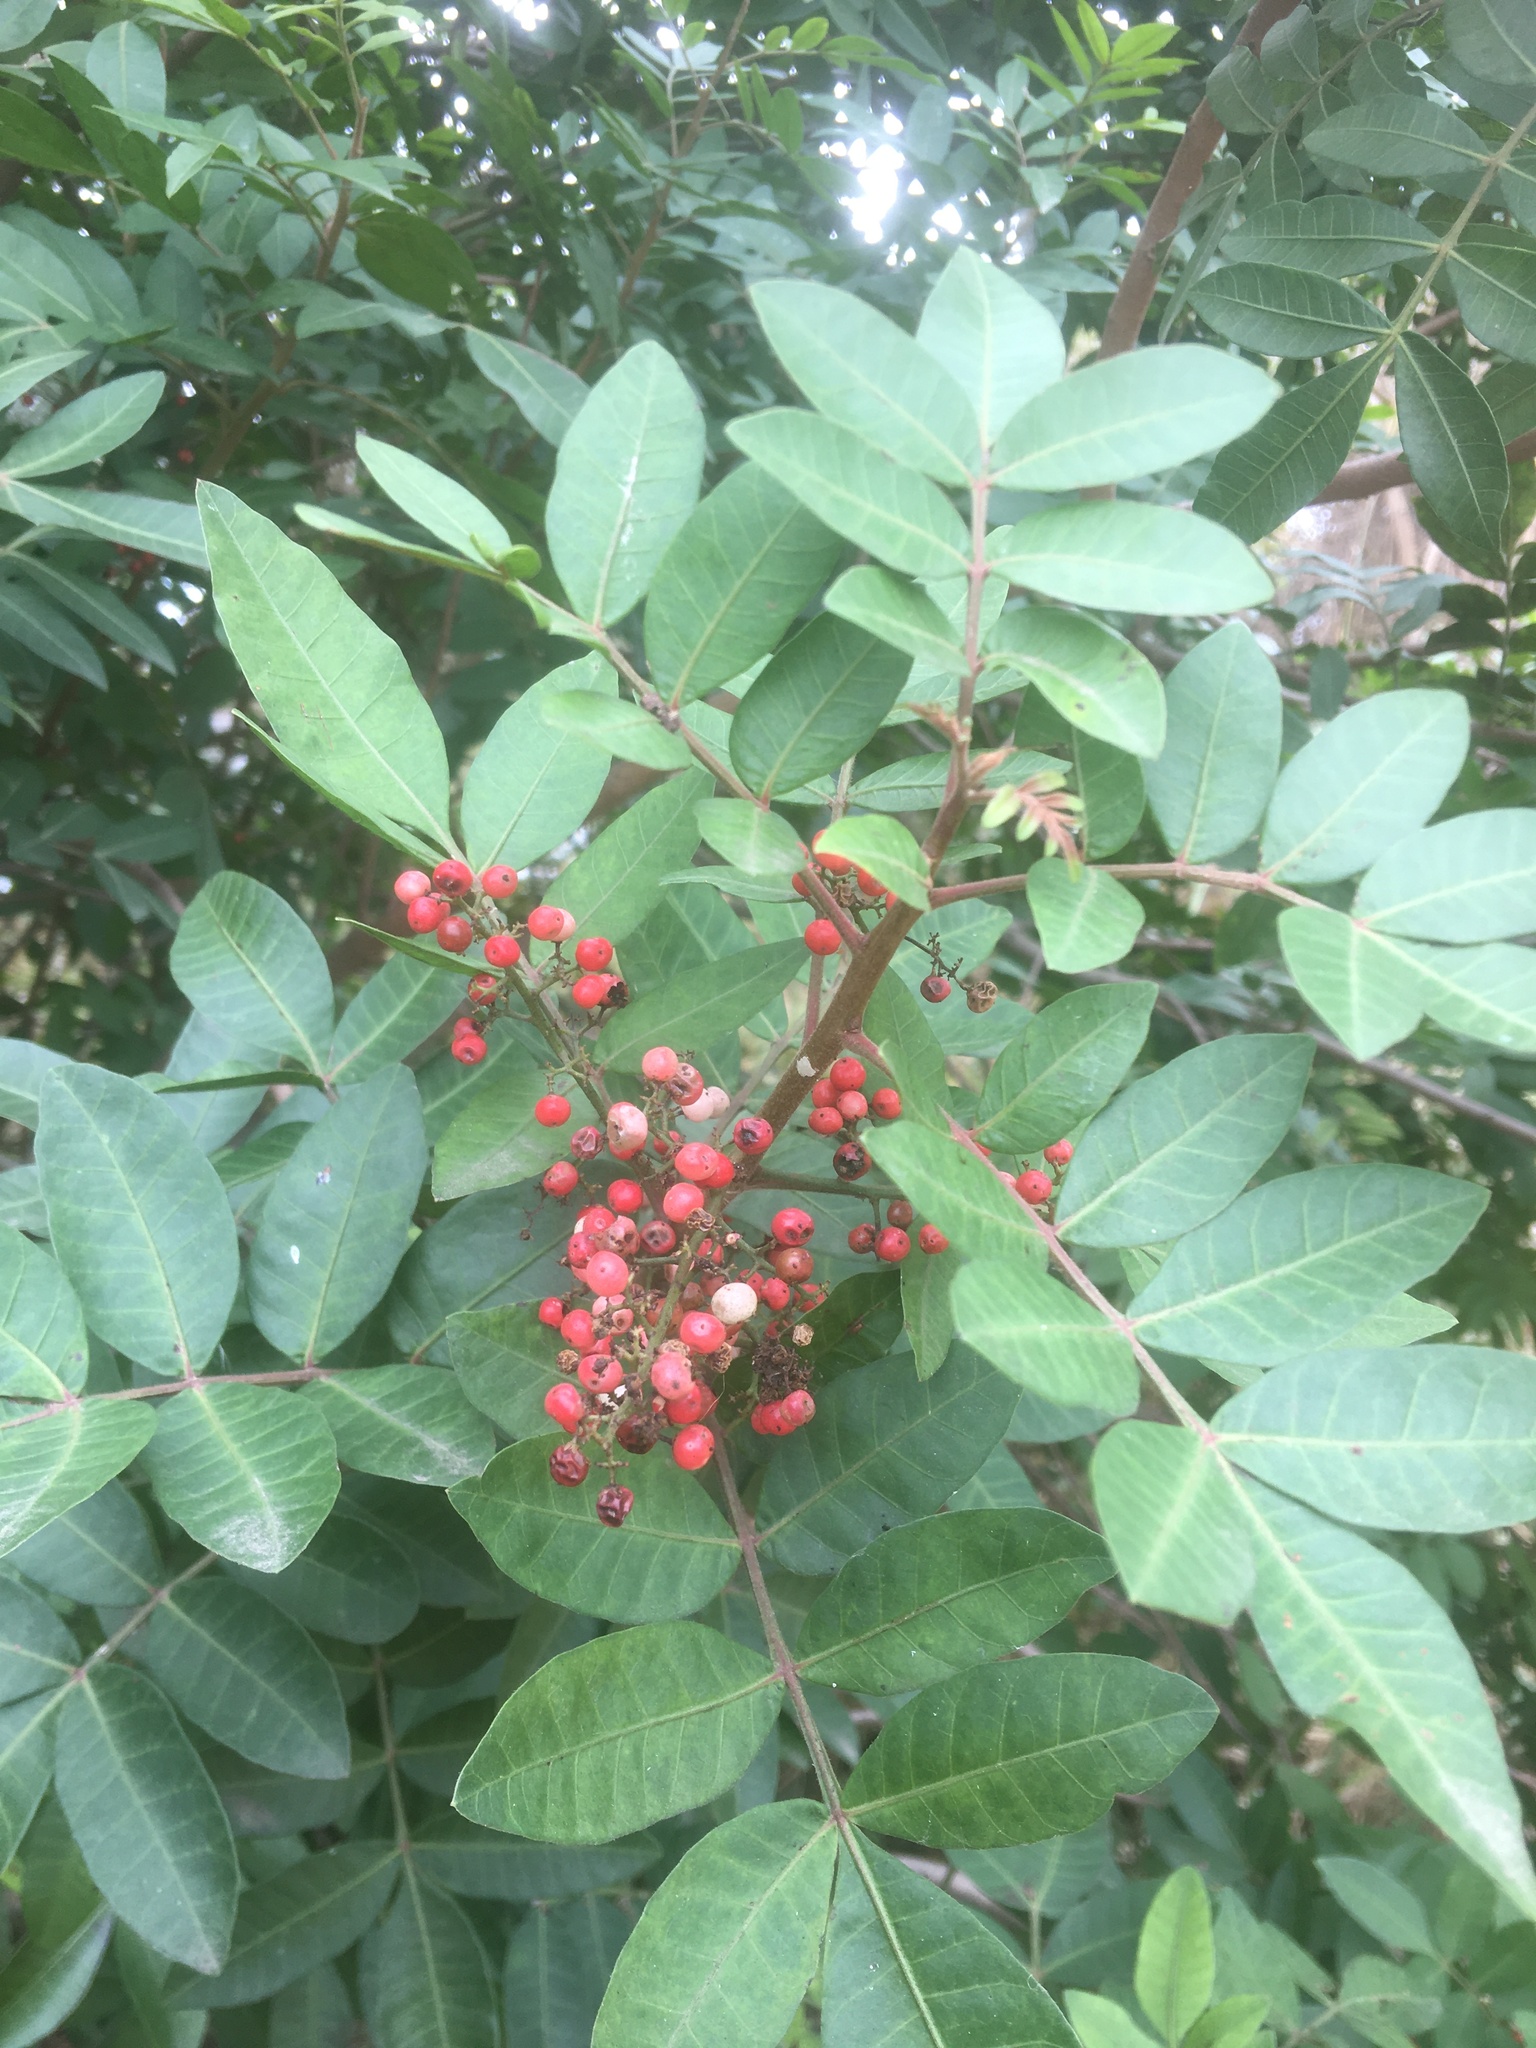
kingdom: Plantae
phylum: Tracheophyta
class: Magnoliopsida
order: Sapindales
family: Anacardiaceae
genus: Schinus
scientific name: Schinus terebinthifolia
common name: Brazilian peppertree
